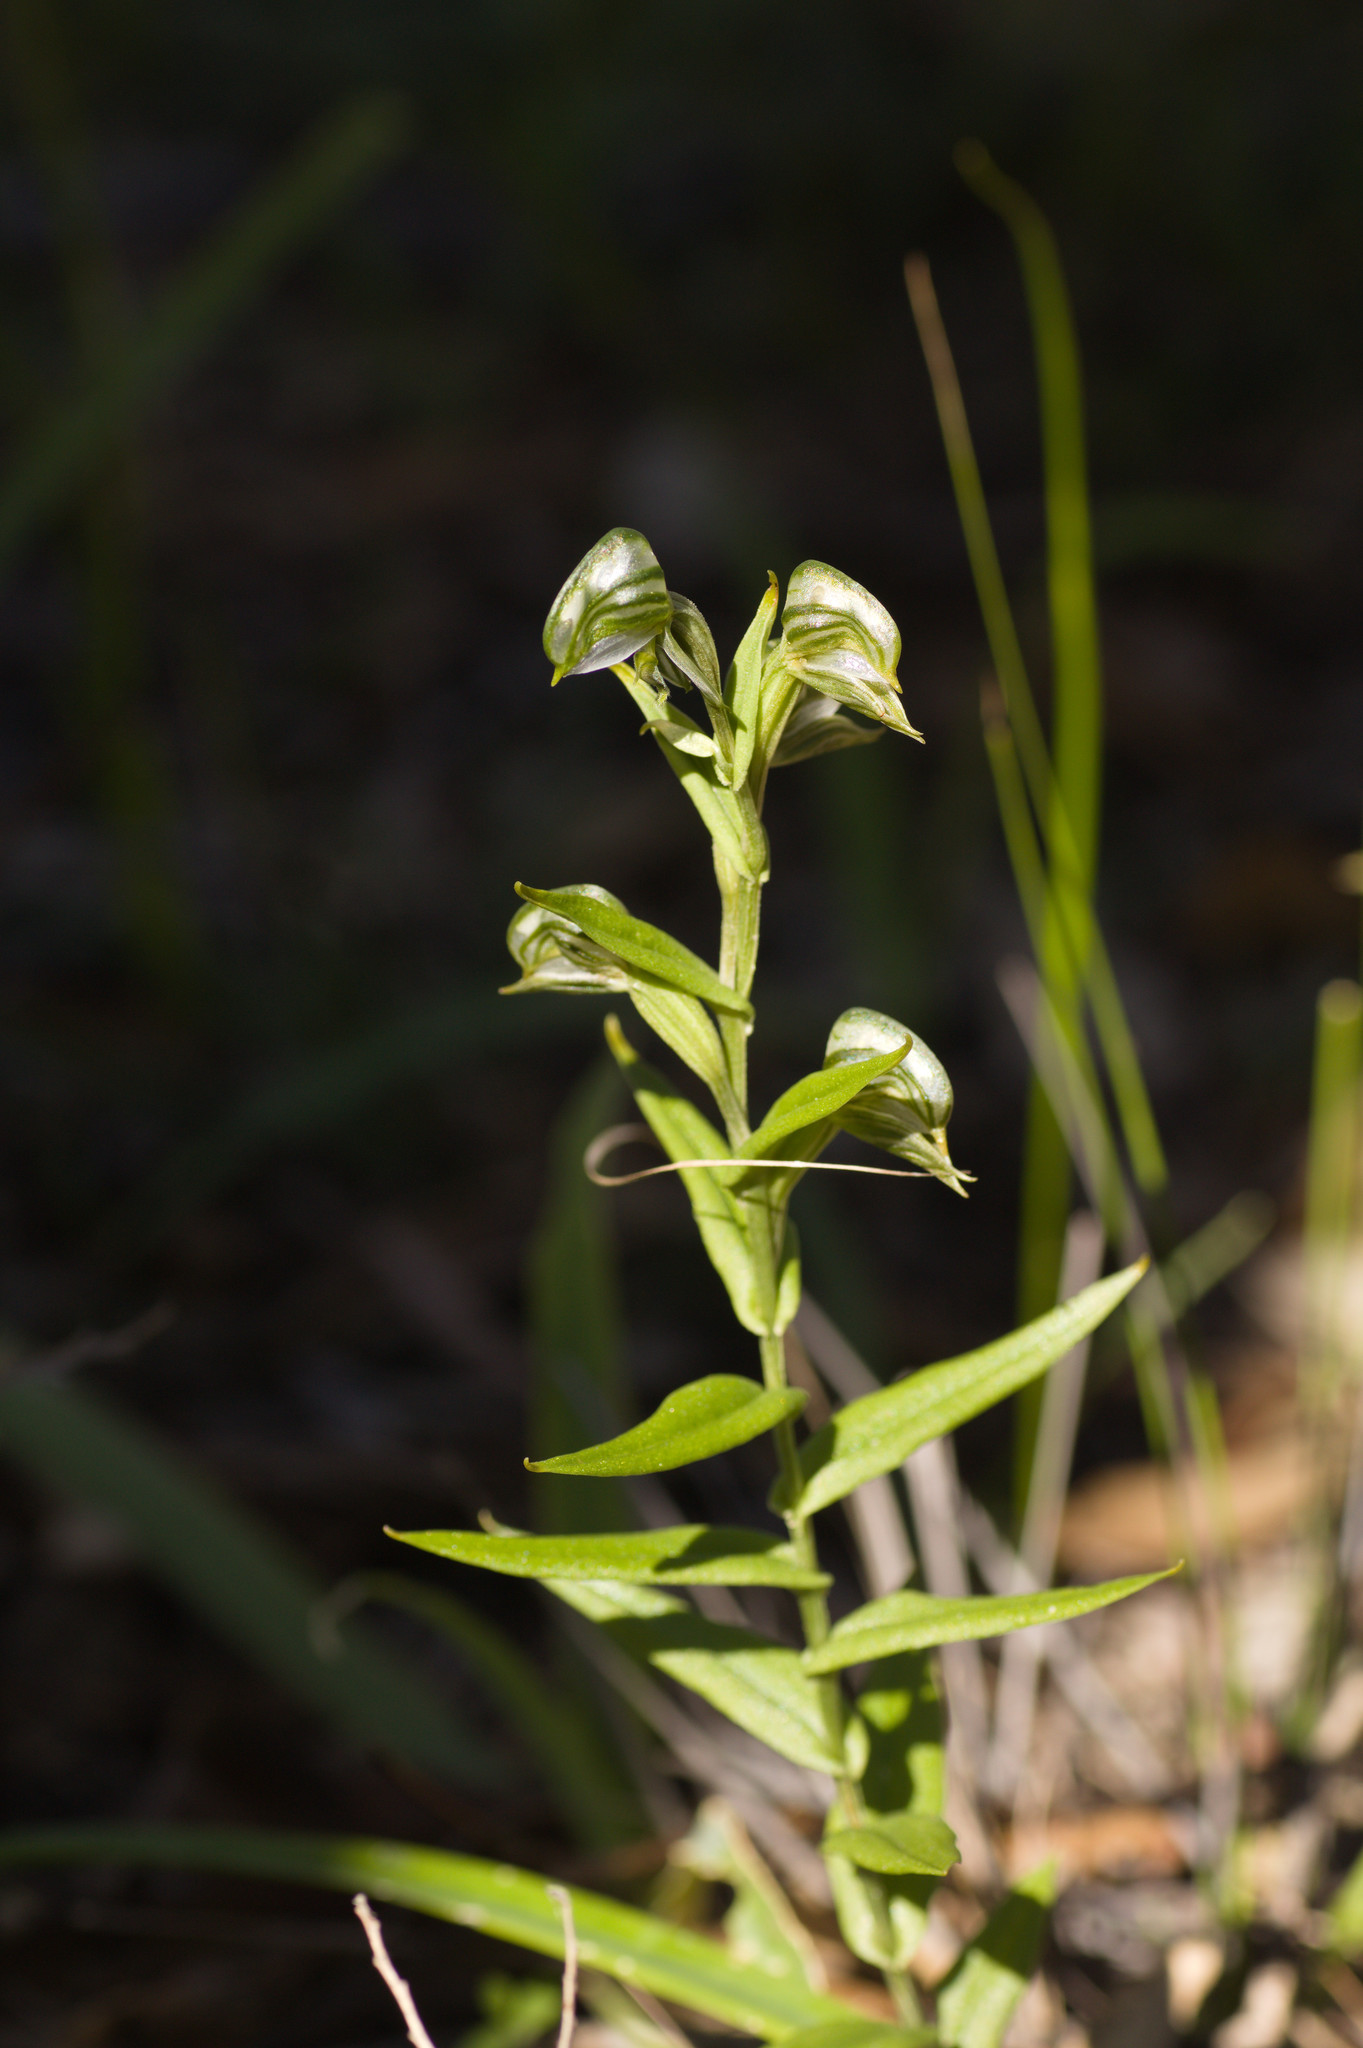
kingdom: Plantae
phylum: Tracheophyta
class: Liliopsida
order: Asparagales
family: Orchidaceae
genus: Pterostylis
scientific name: Pterostylis vittata
